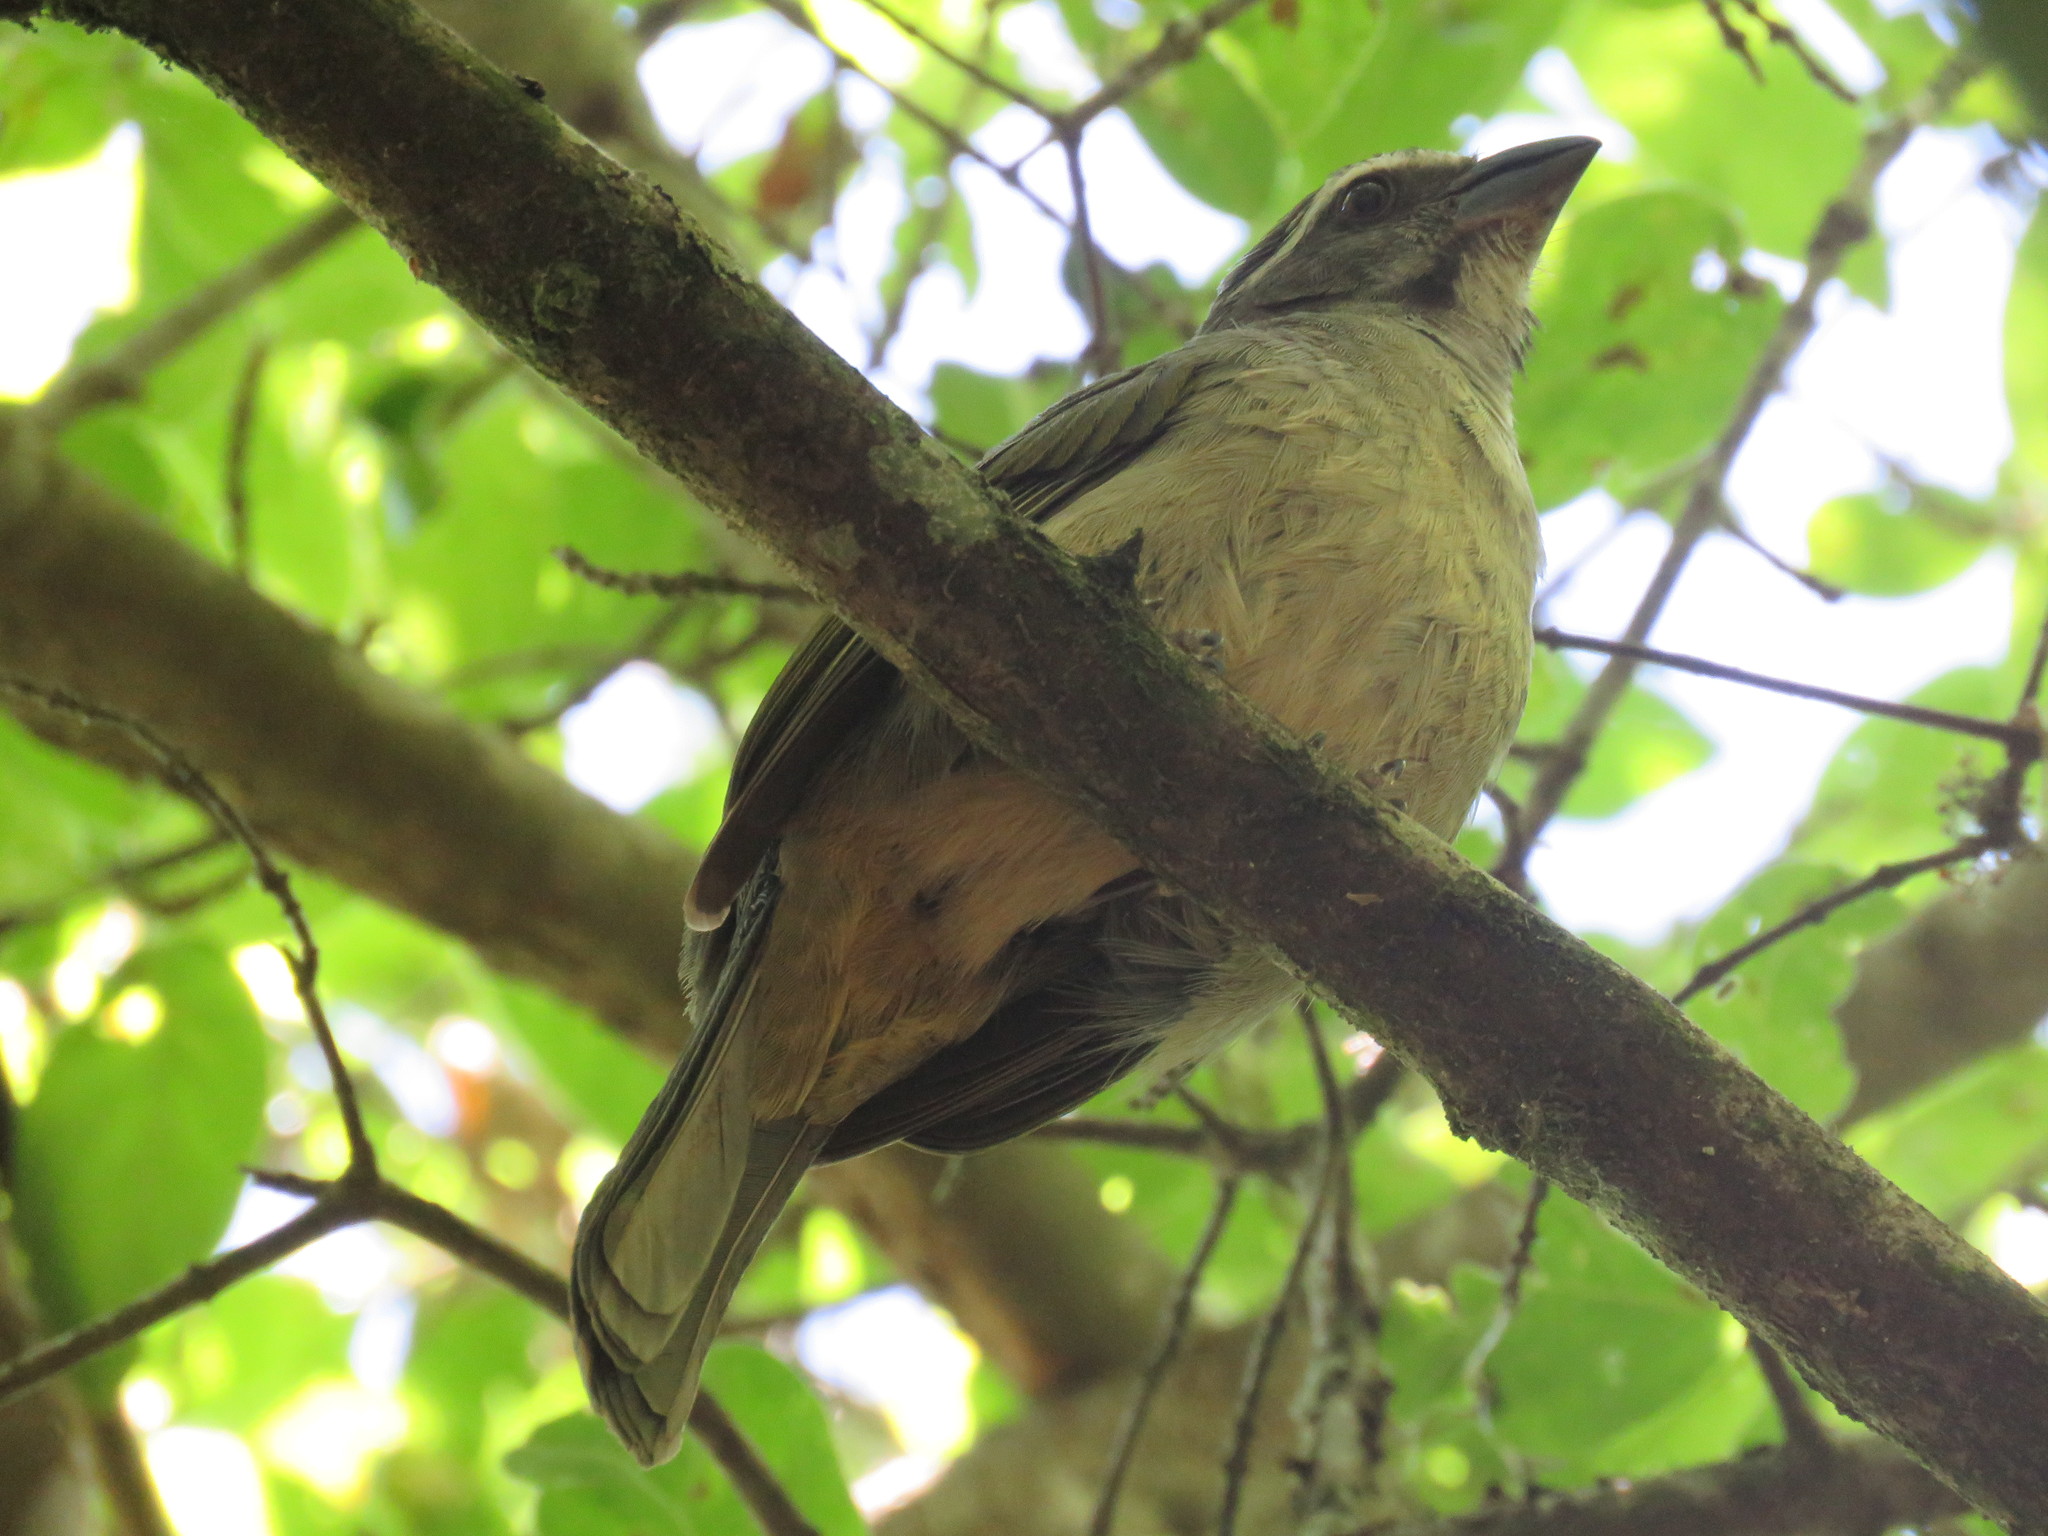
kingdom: Animalia
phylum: Chordata
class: Aves
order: Passeriformes
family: Thraupidae
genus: Saltator
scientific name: Saltator similis
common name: Green-winged saltator
